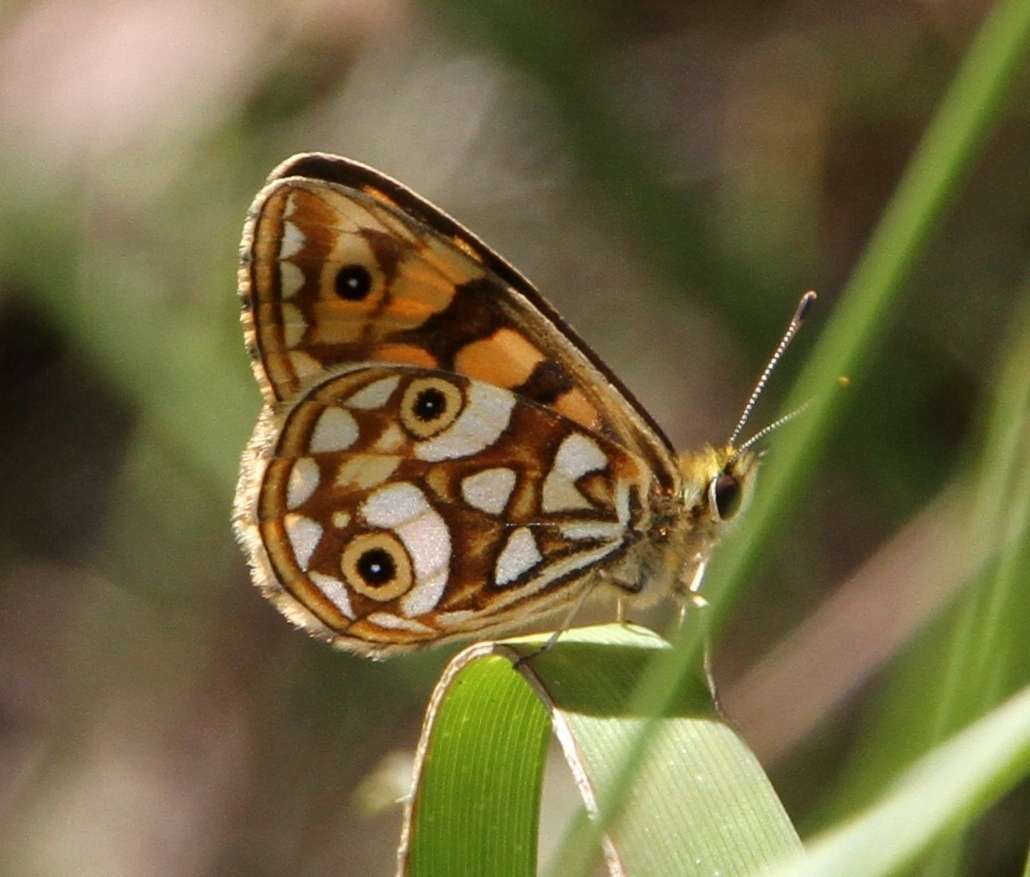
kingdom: Animalia
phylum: Arthropoda
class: Insecta
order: Lepidoptera
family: Nymphalidae
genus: Oreixenica
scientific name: Oreixenica lathoniella
